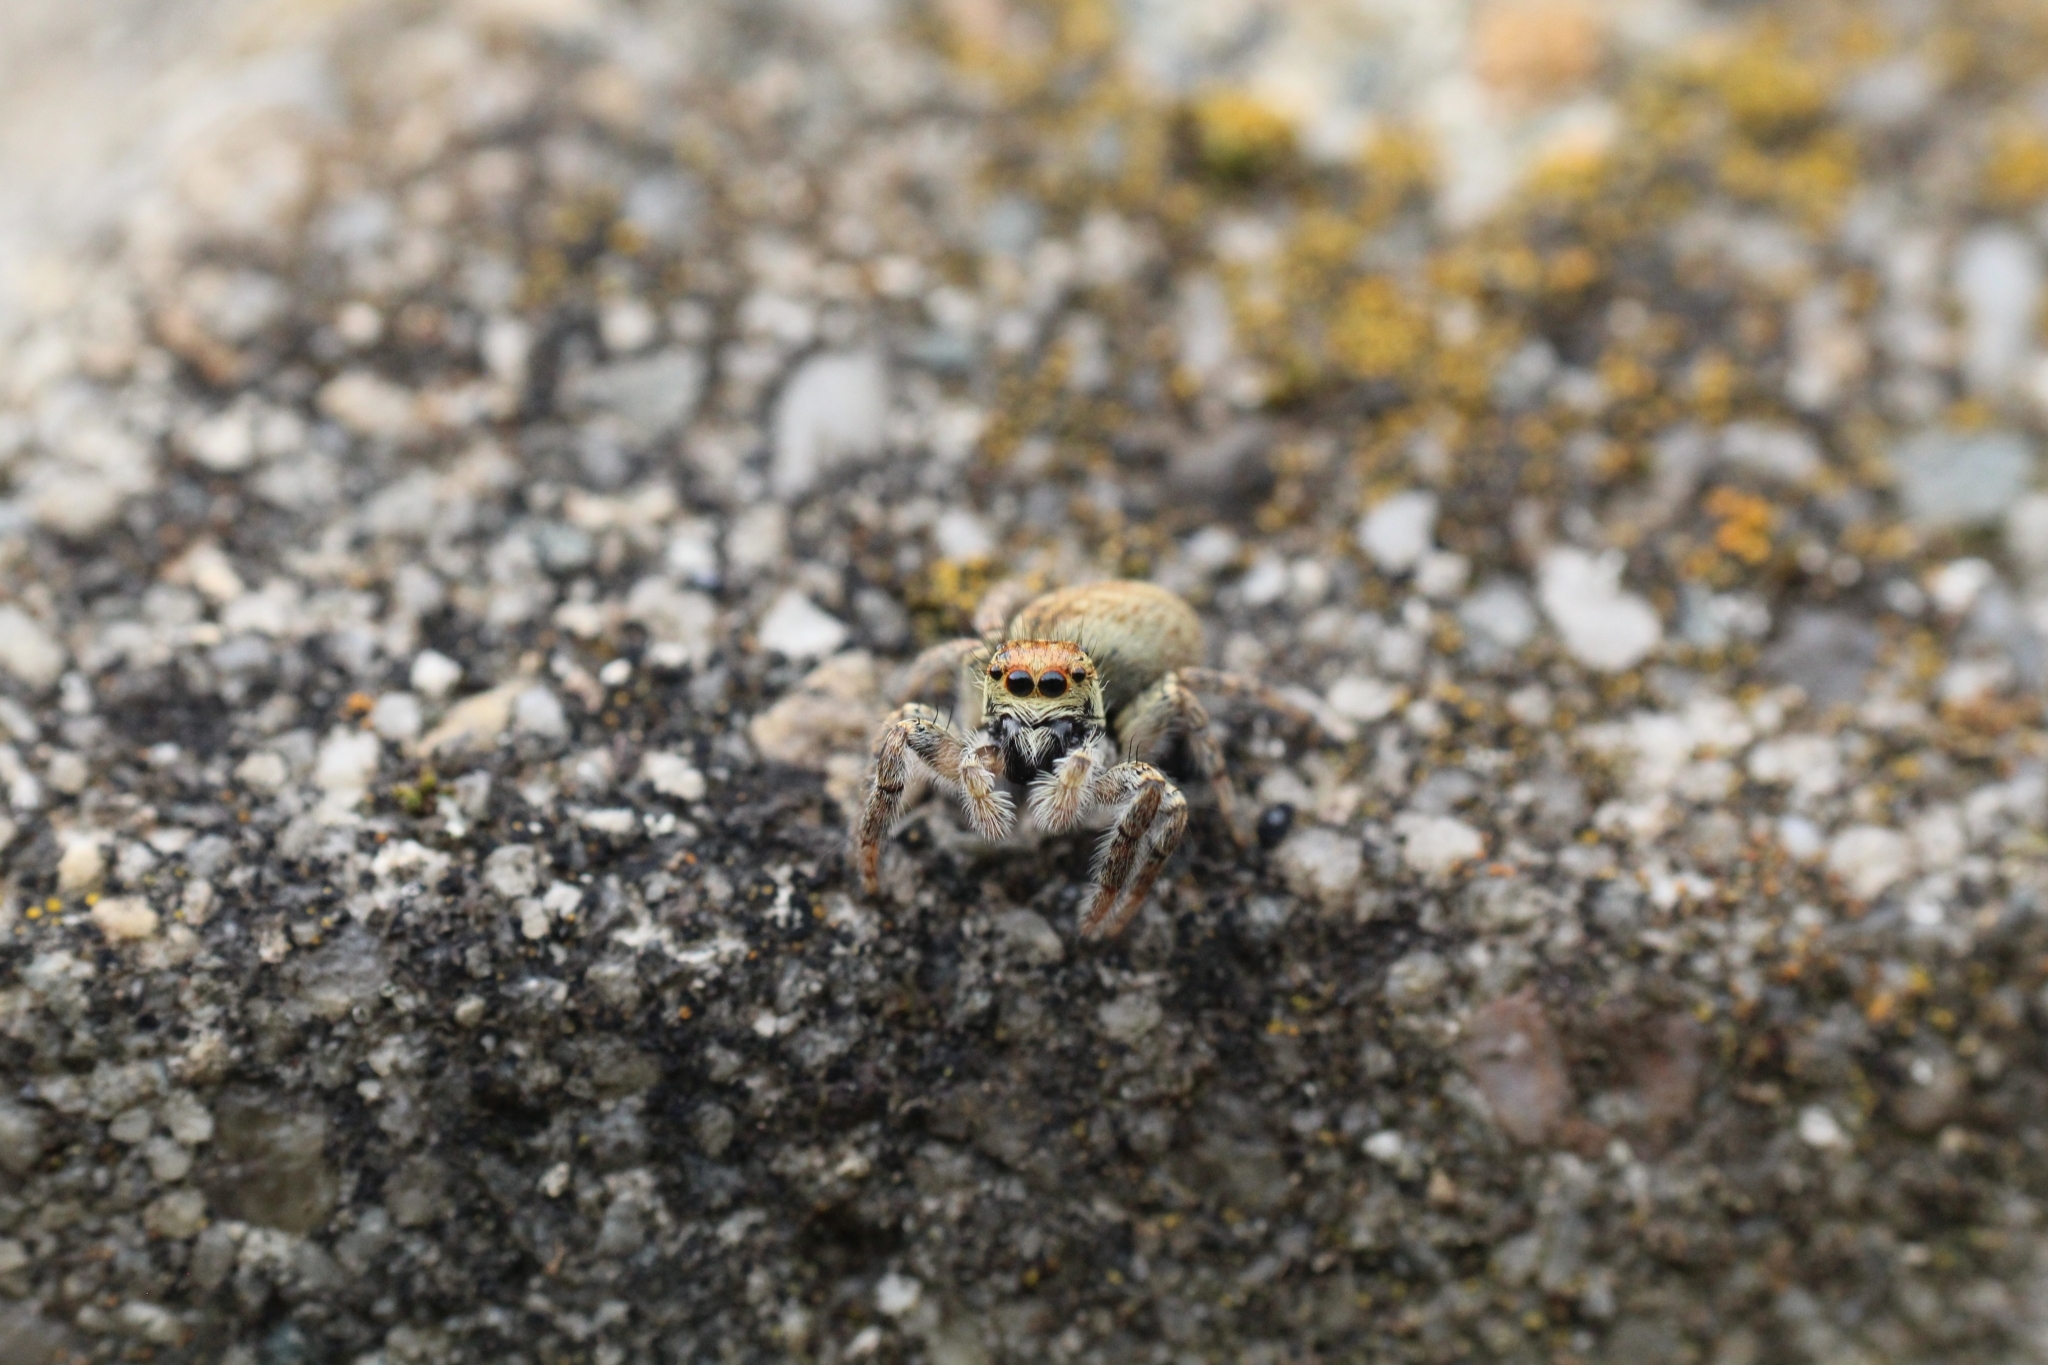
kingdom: Animalia
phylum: Arthropoda
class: Arachnida
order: Araneae
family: Salticidae
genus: Carrhotus
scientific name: Carrhotus xanthogramma
